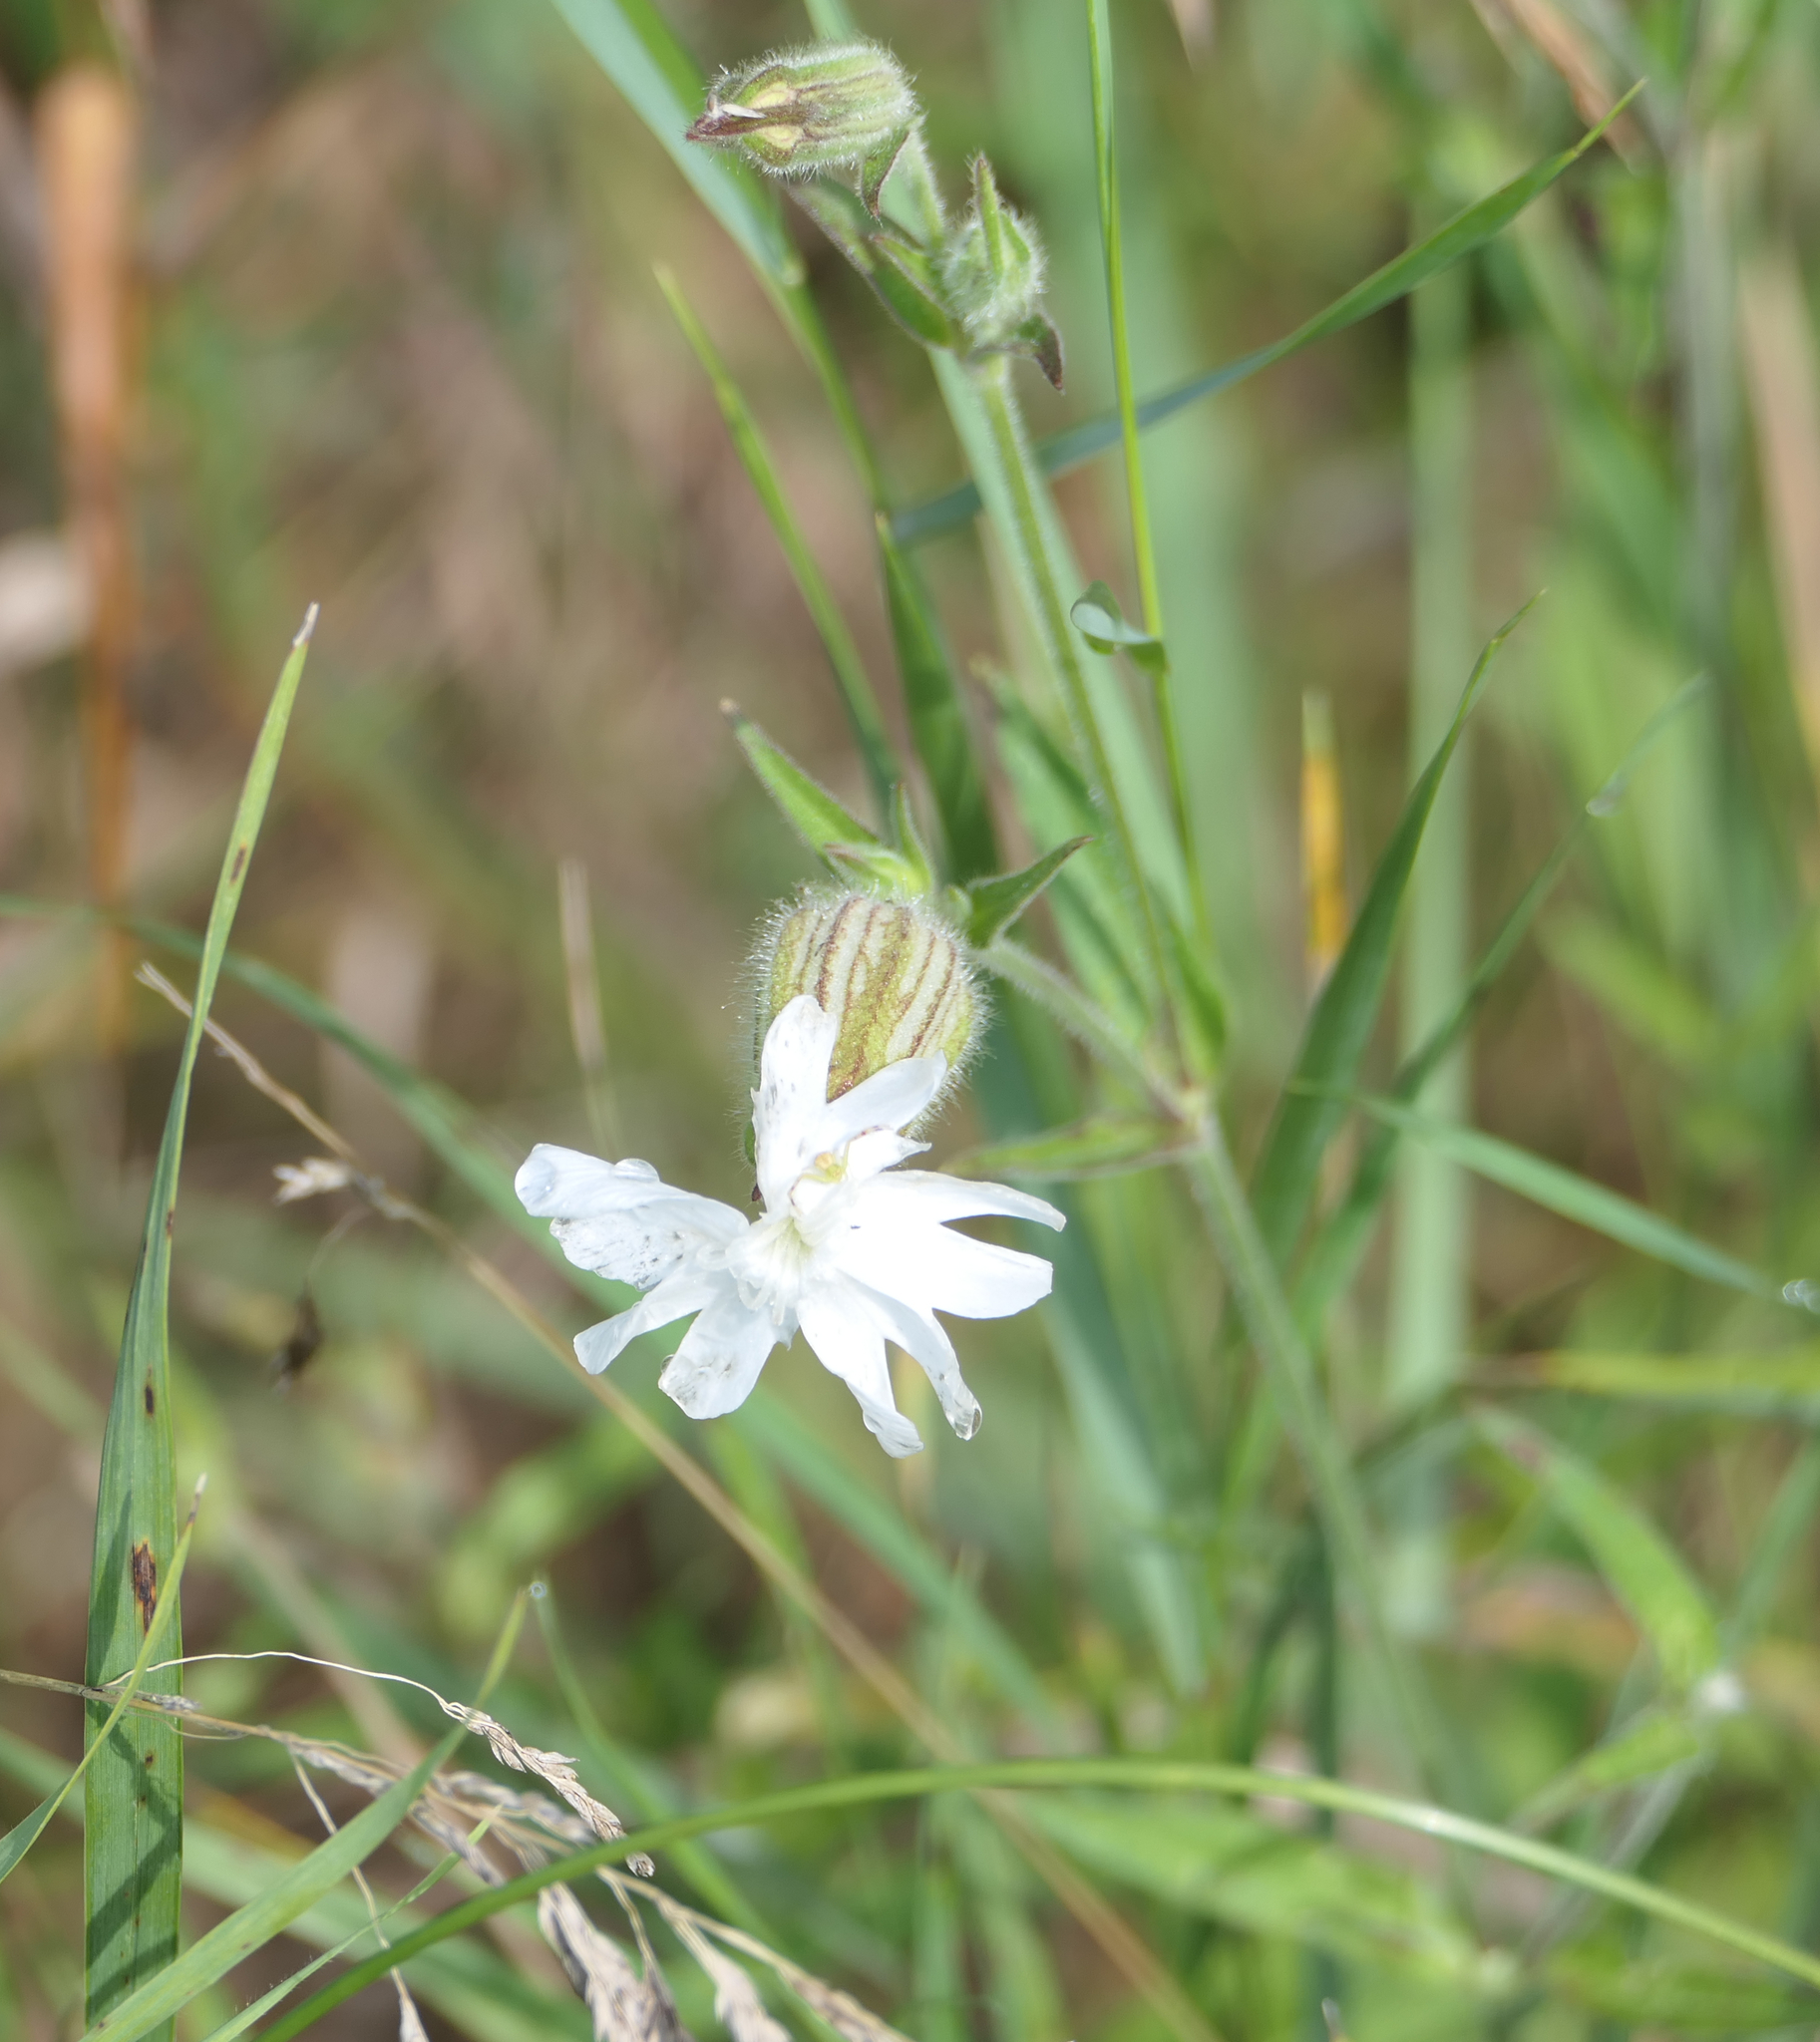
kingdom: Plantae
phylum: Tracheophyta
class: Magnoliopsida
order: Caryophyllales
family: Caryophyllaceae
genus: Silene
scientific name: Silene latifolia
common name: White campion
